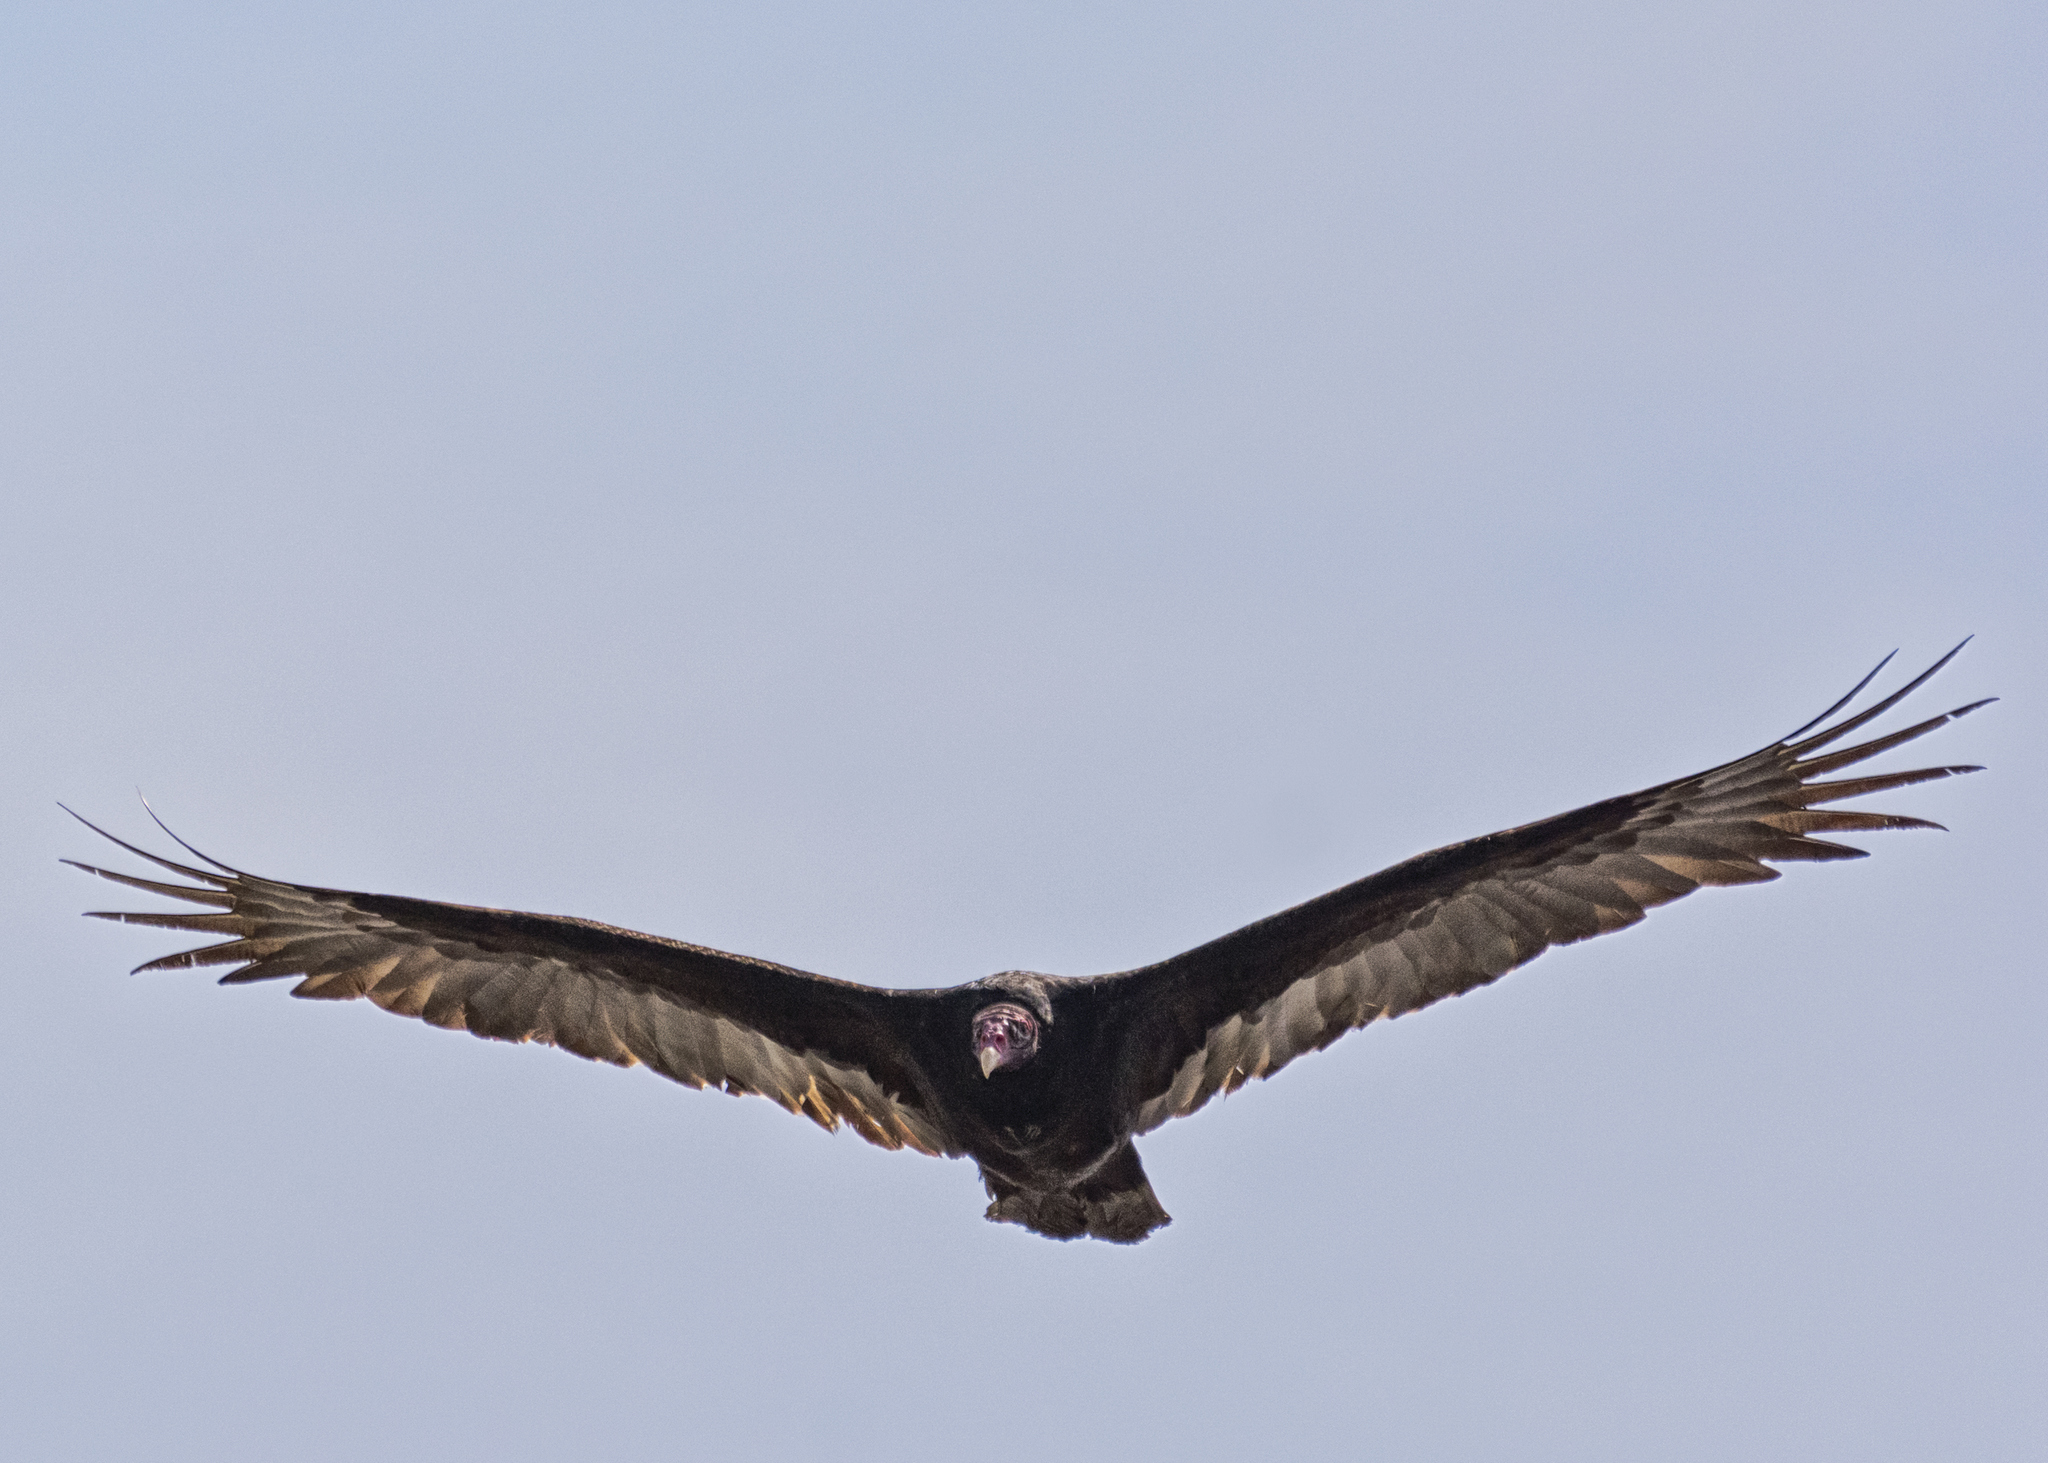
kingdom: Animalia
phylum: Chordata
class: Aves
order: Accipitriformes
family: Cathartidae
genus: Cathartes
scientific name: Cathartes aura
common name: Turkey vulture
